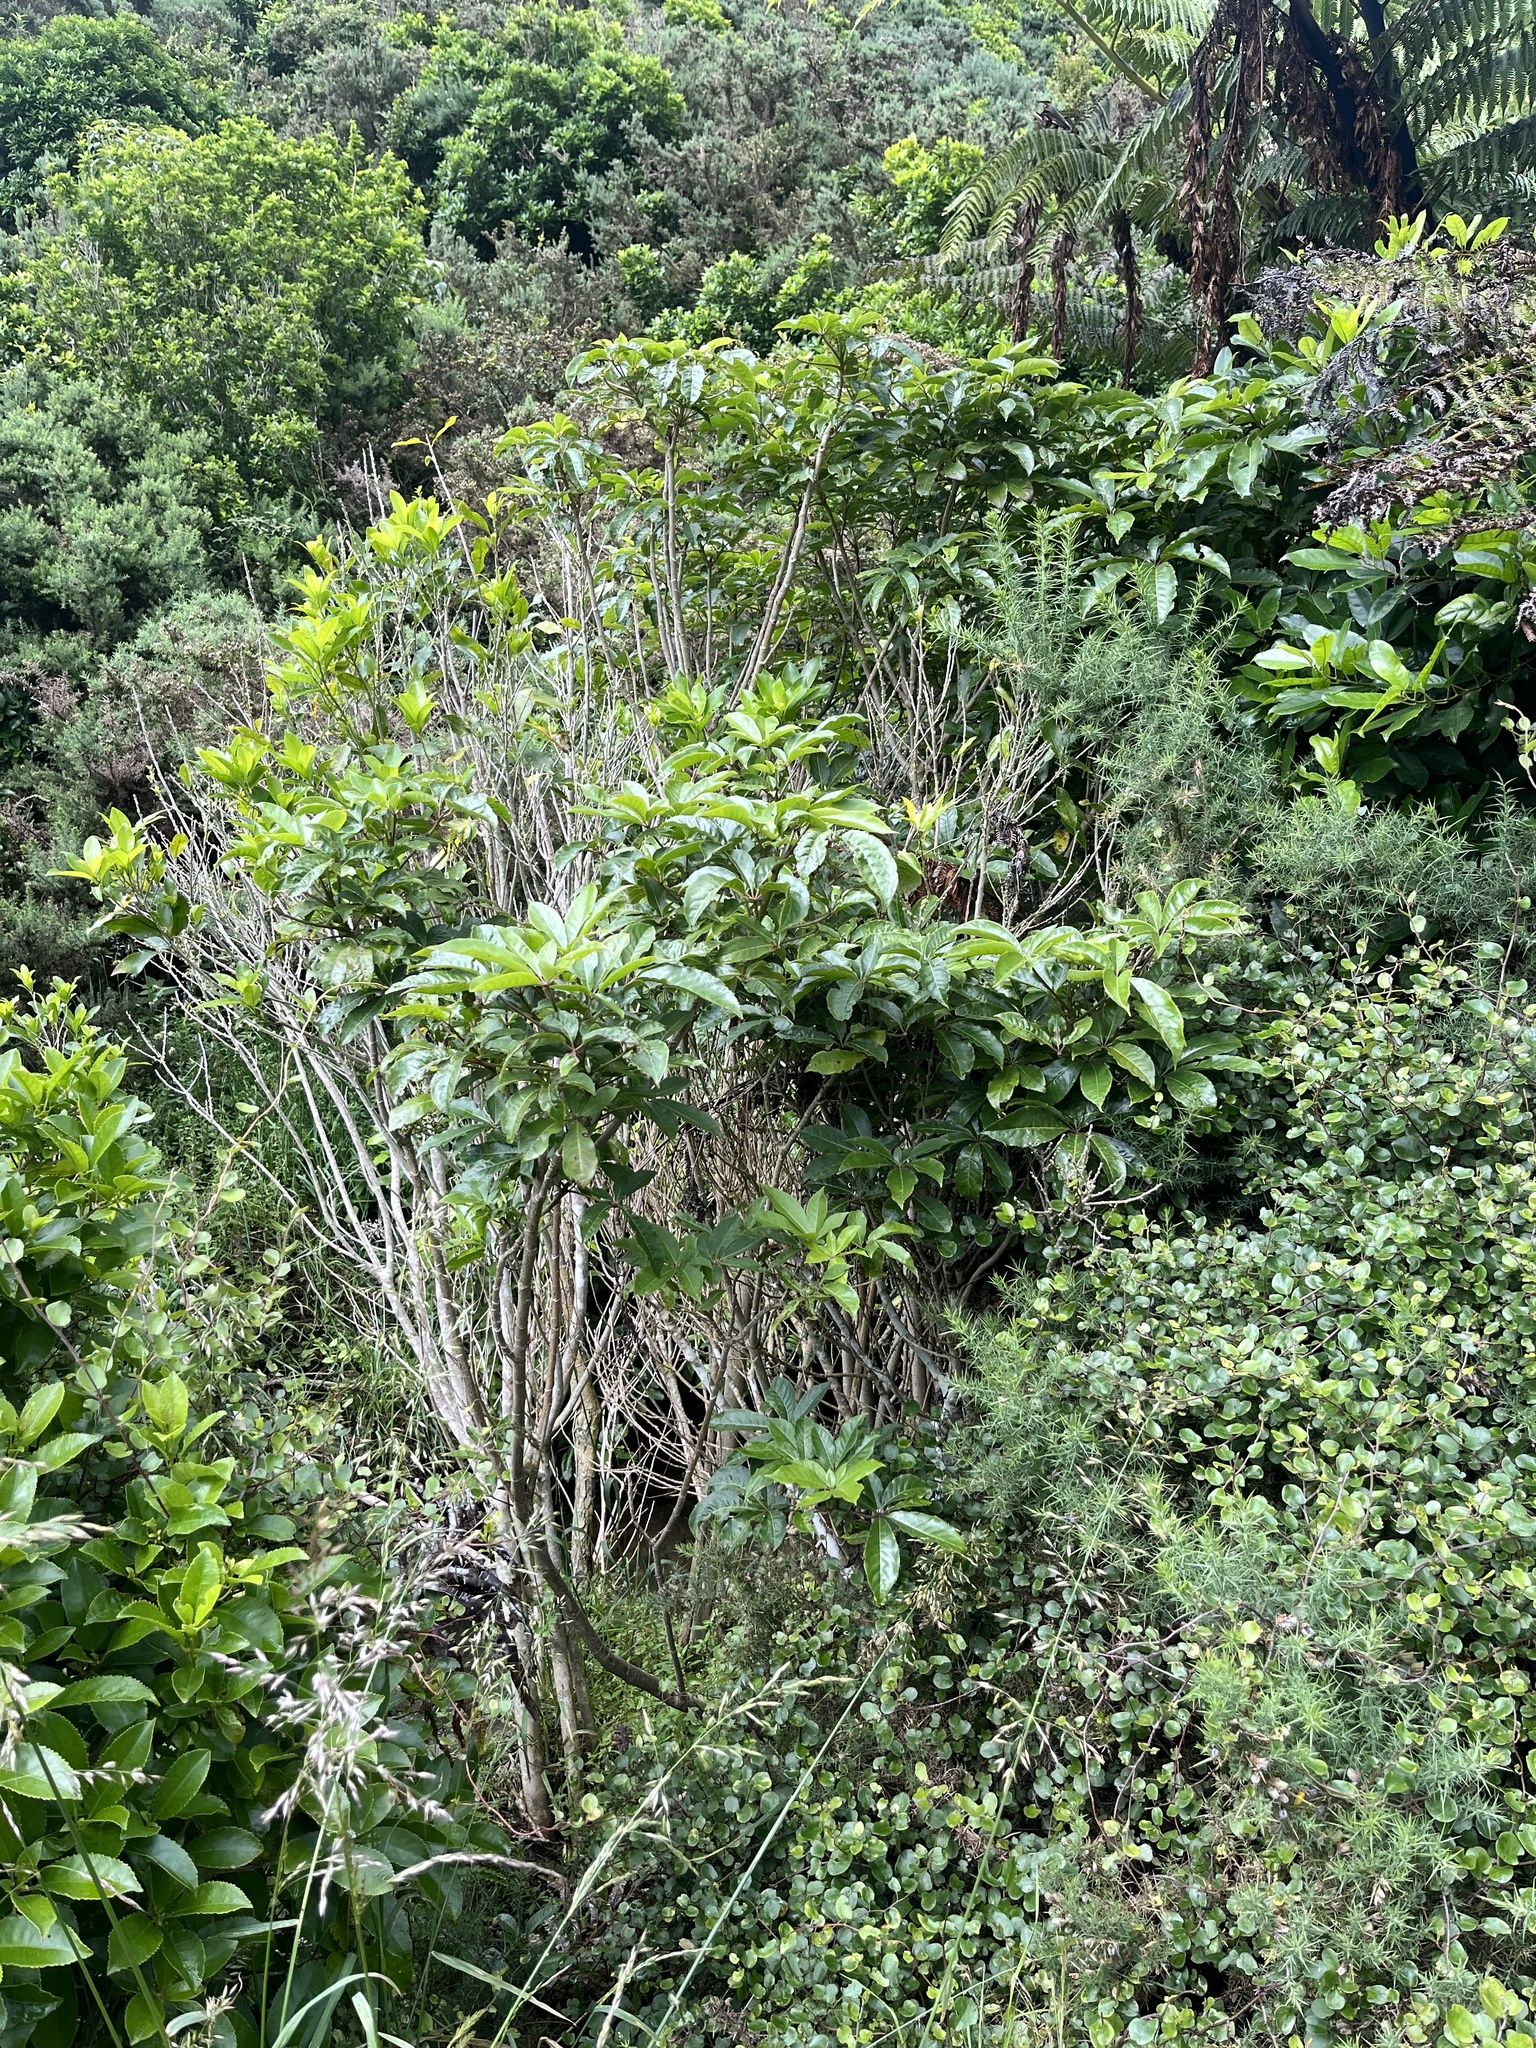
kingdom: Plantae
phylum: Tracheophyta
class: Magnoliopsida
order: Apiales
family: Araliaceae
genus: Schefflera
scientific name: Schefflera digitata
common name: Pate
